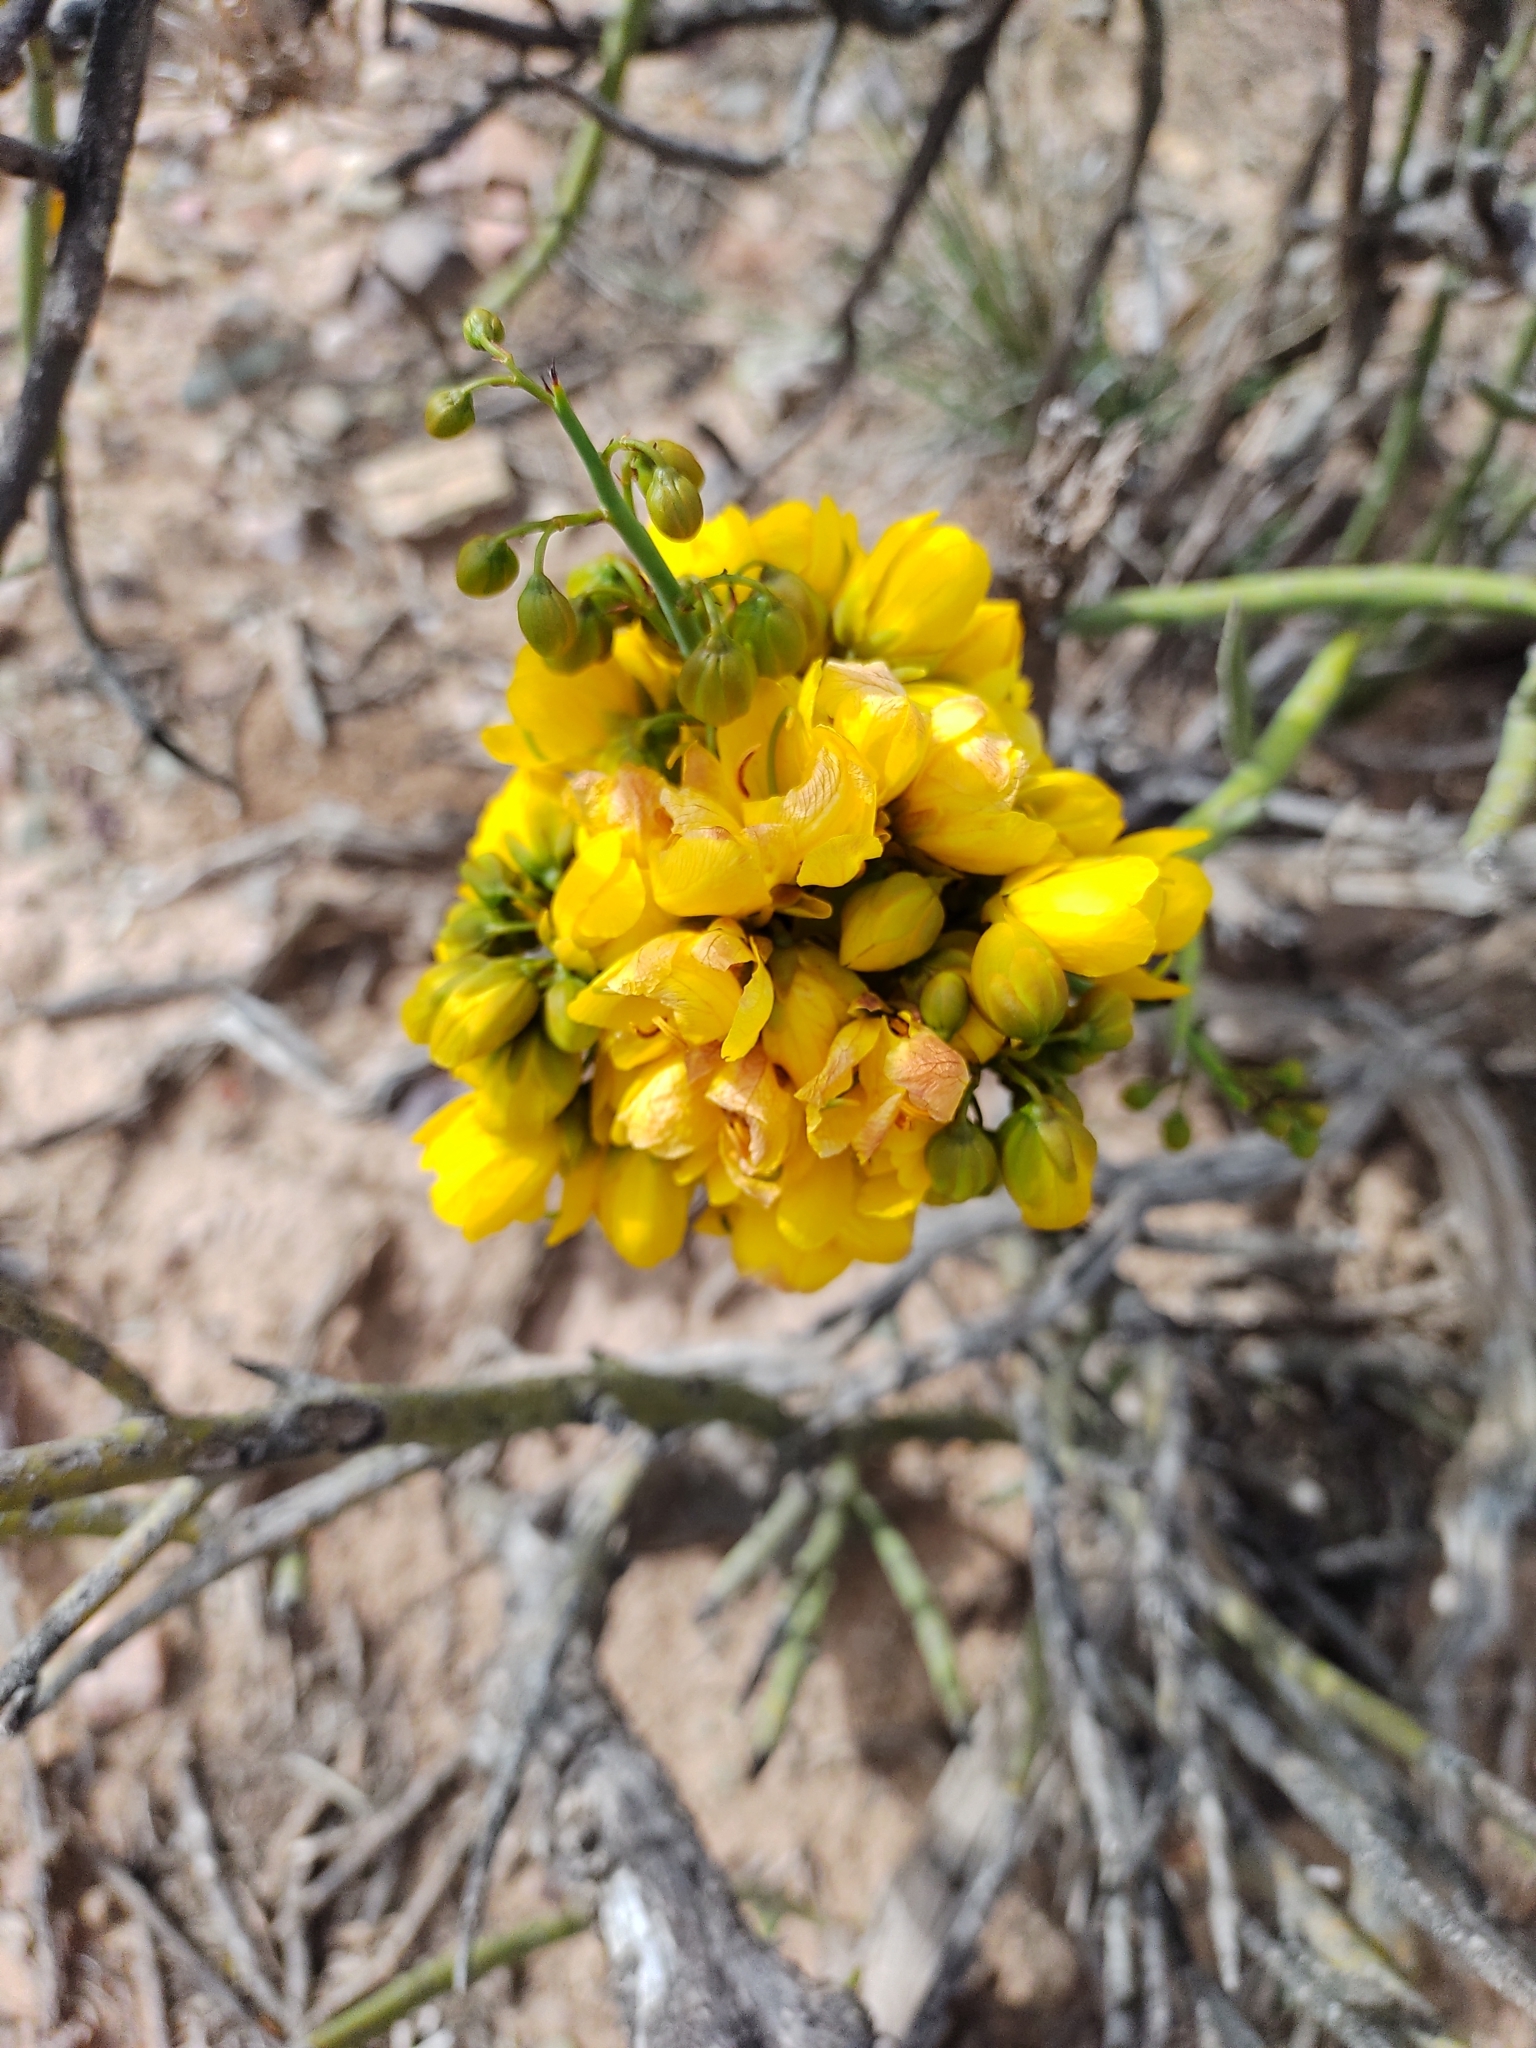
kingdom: Plantae
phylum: Tracheophyta
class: Magnoliopsida
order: Fabales
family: Fabaceae
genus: Senna
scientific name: Senna crassiramea
